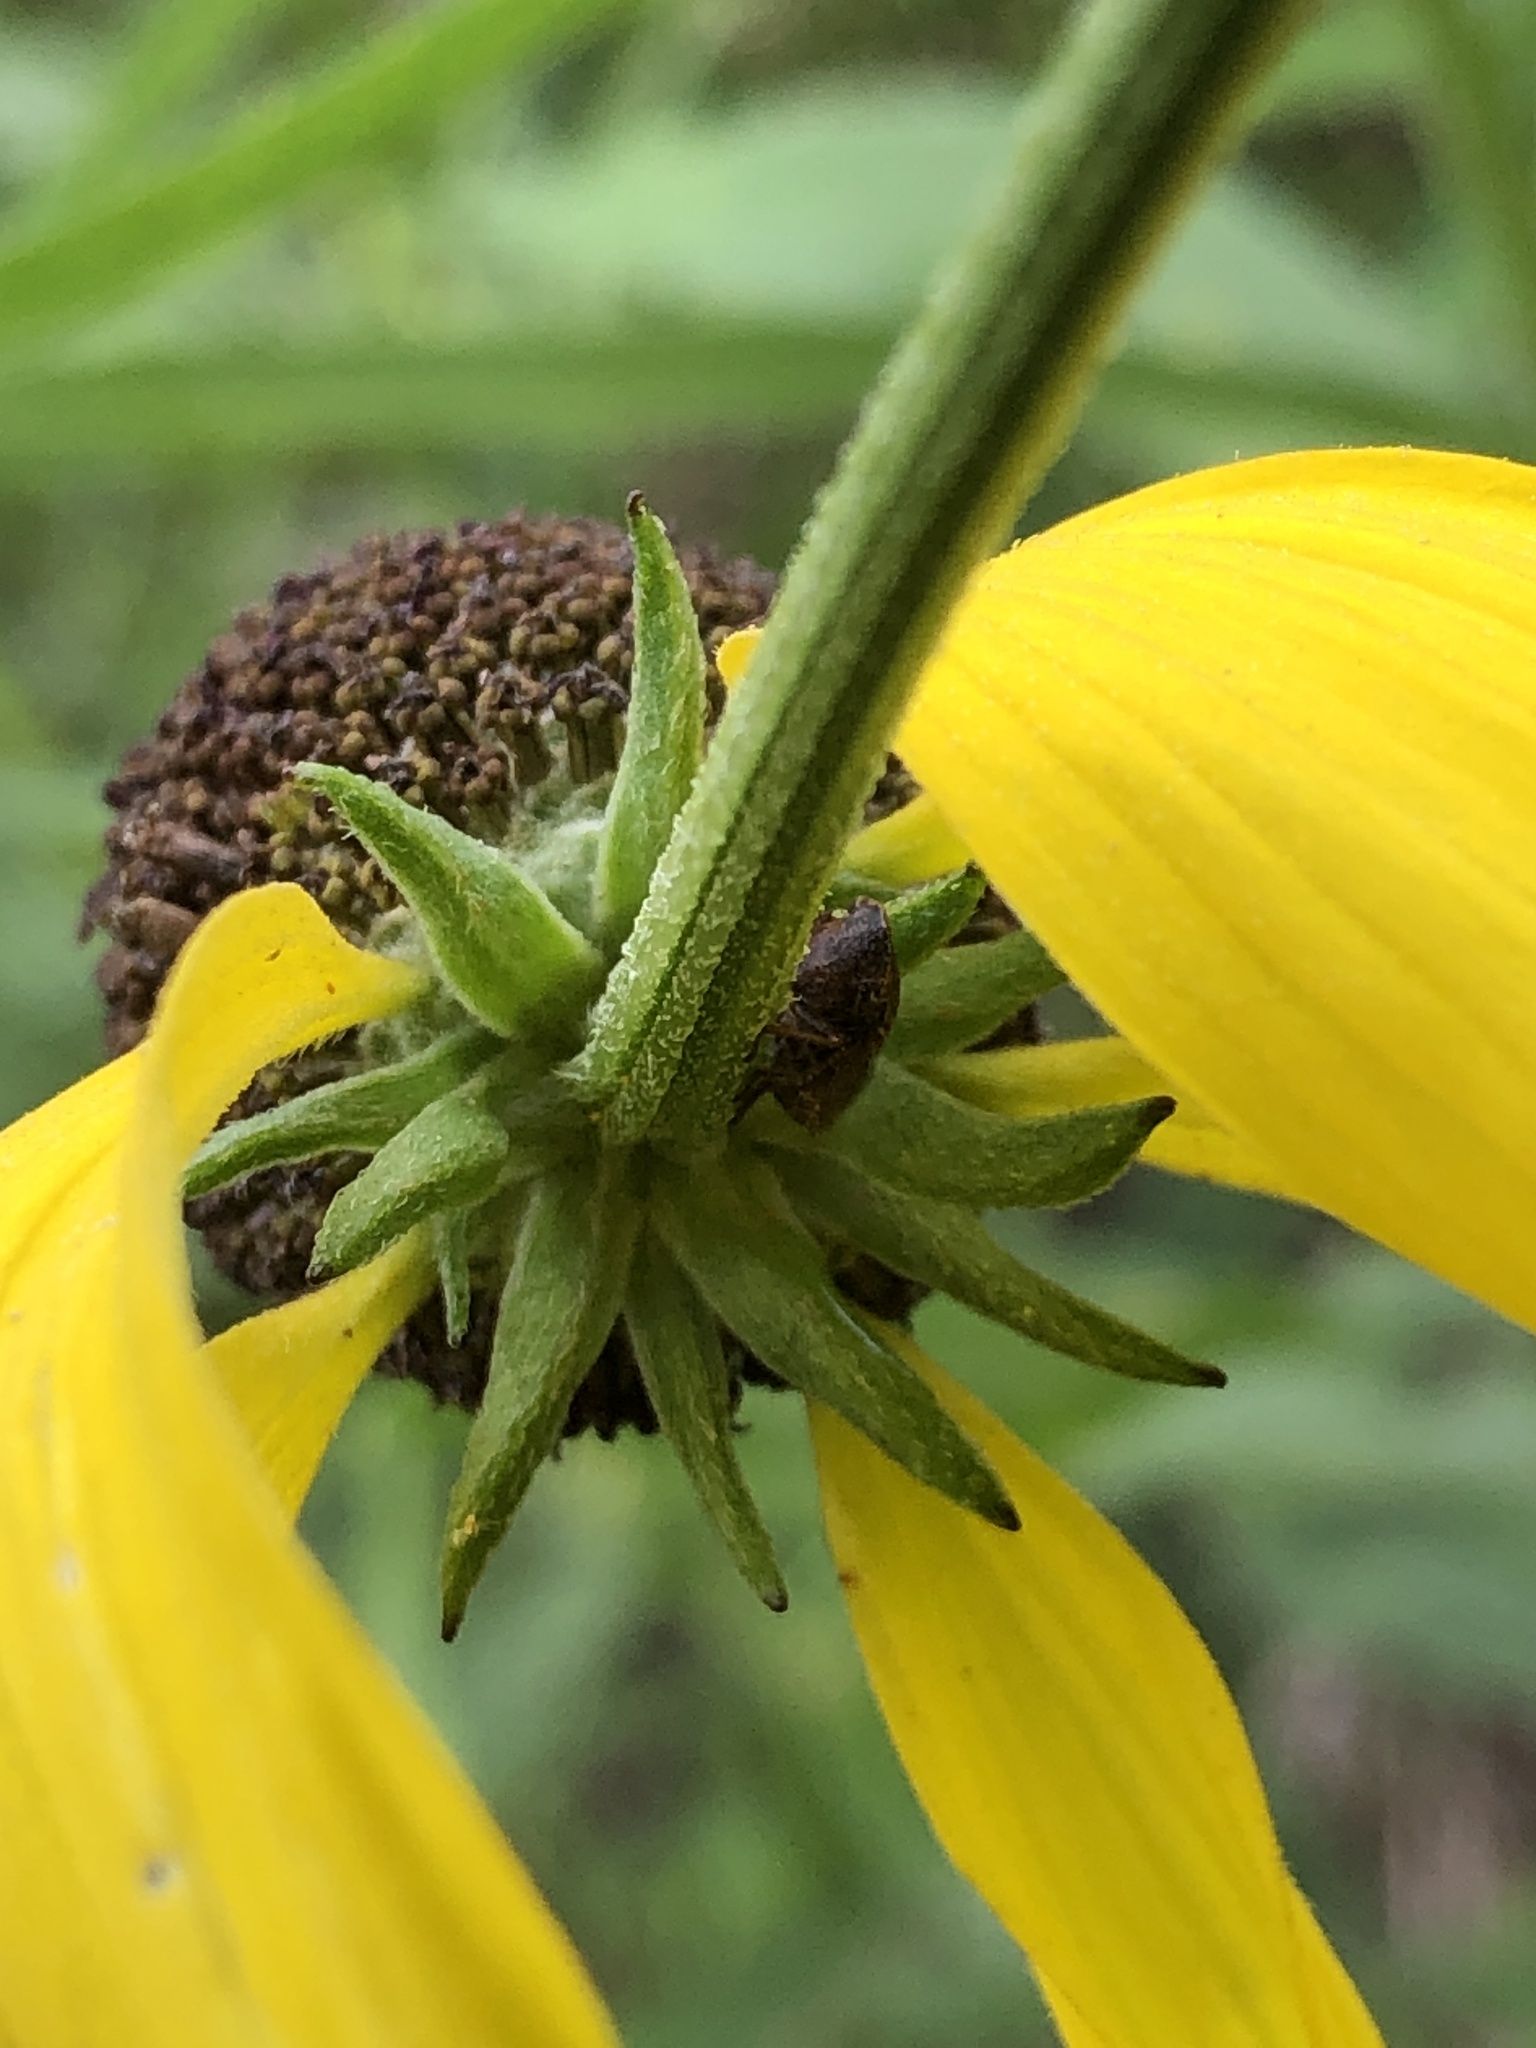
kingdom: Plantae
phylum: Tracheophyta
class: Magnoliopsida
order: Asterales
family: Asteraceae
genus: Ratibida
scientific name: Ratibida pinnata
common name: Drooping prairie-coneflower
